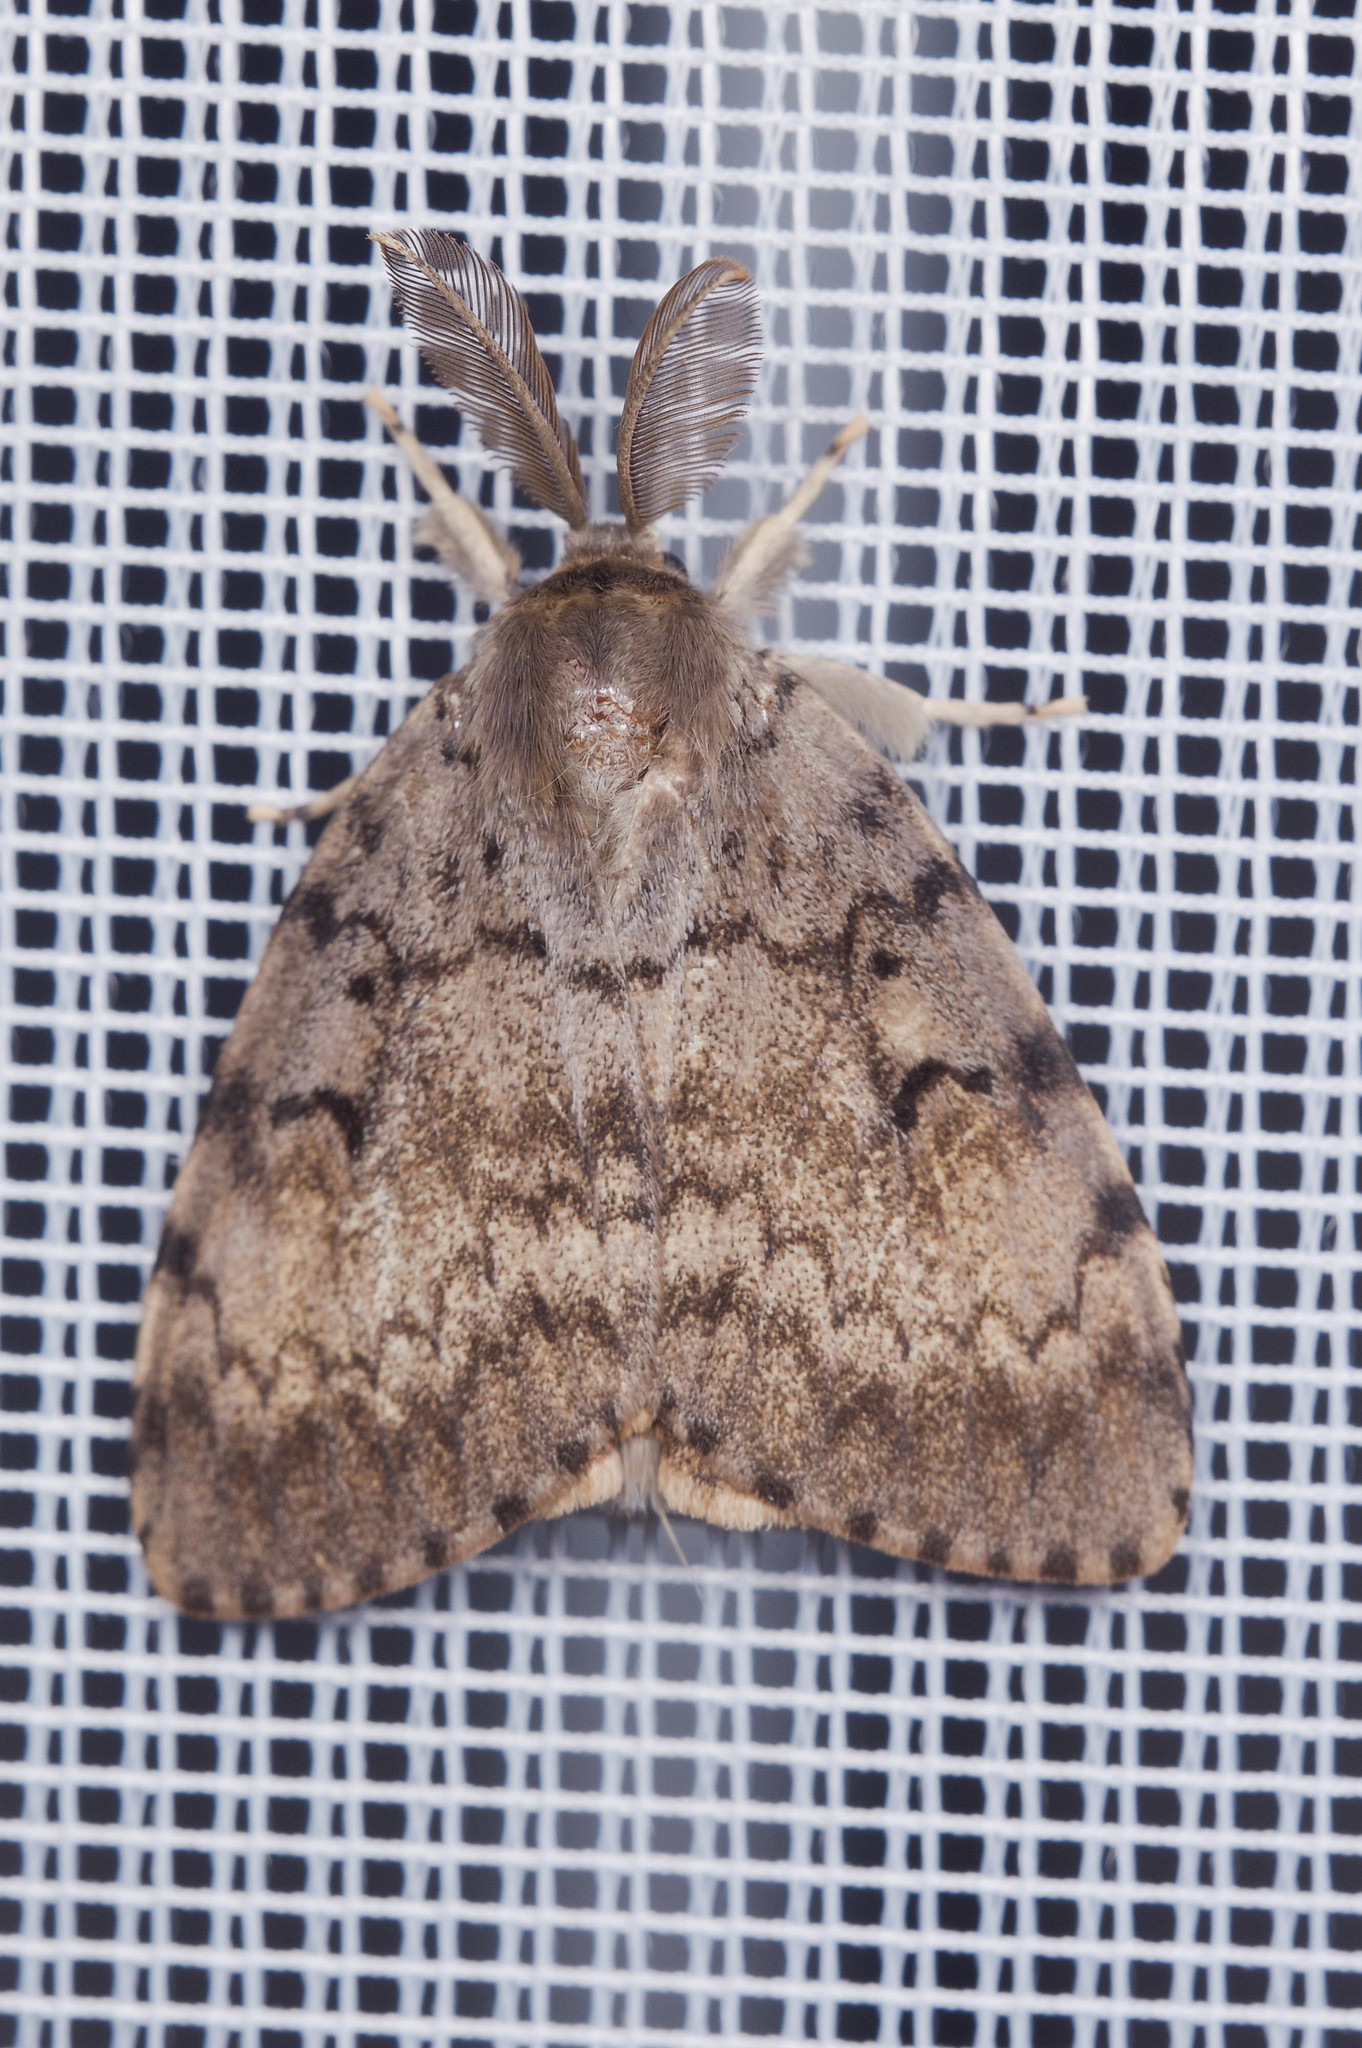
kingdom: Animalia
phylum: Arthropoda
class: Insecta
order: Lepidoptera
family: Erebidae
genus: Lymantria
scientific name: Lymantria dispar
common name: Gypsy moth
